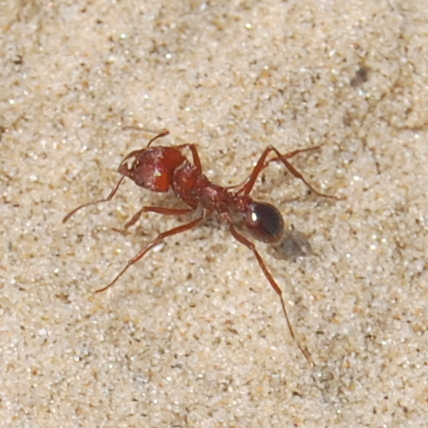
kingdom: Animalia
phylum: Arthropoda
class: Insecta
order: Hymenoptera
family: Formicidae
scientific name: Formicidae
